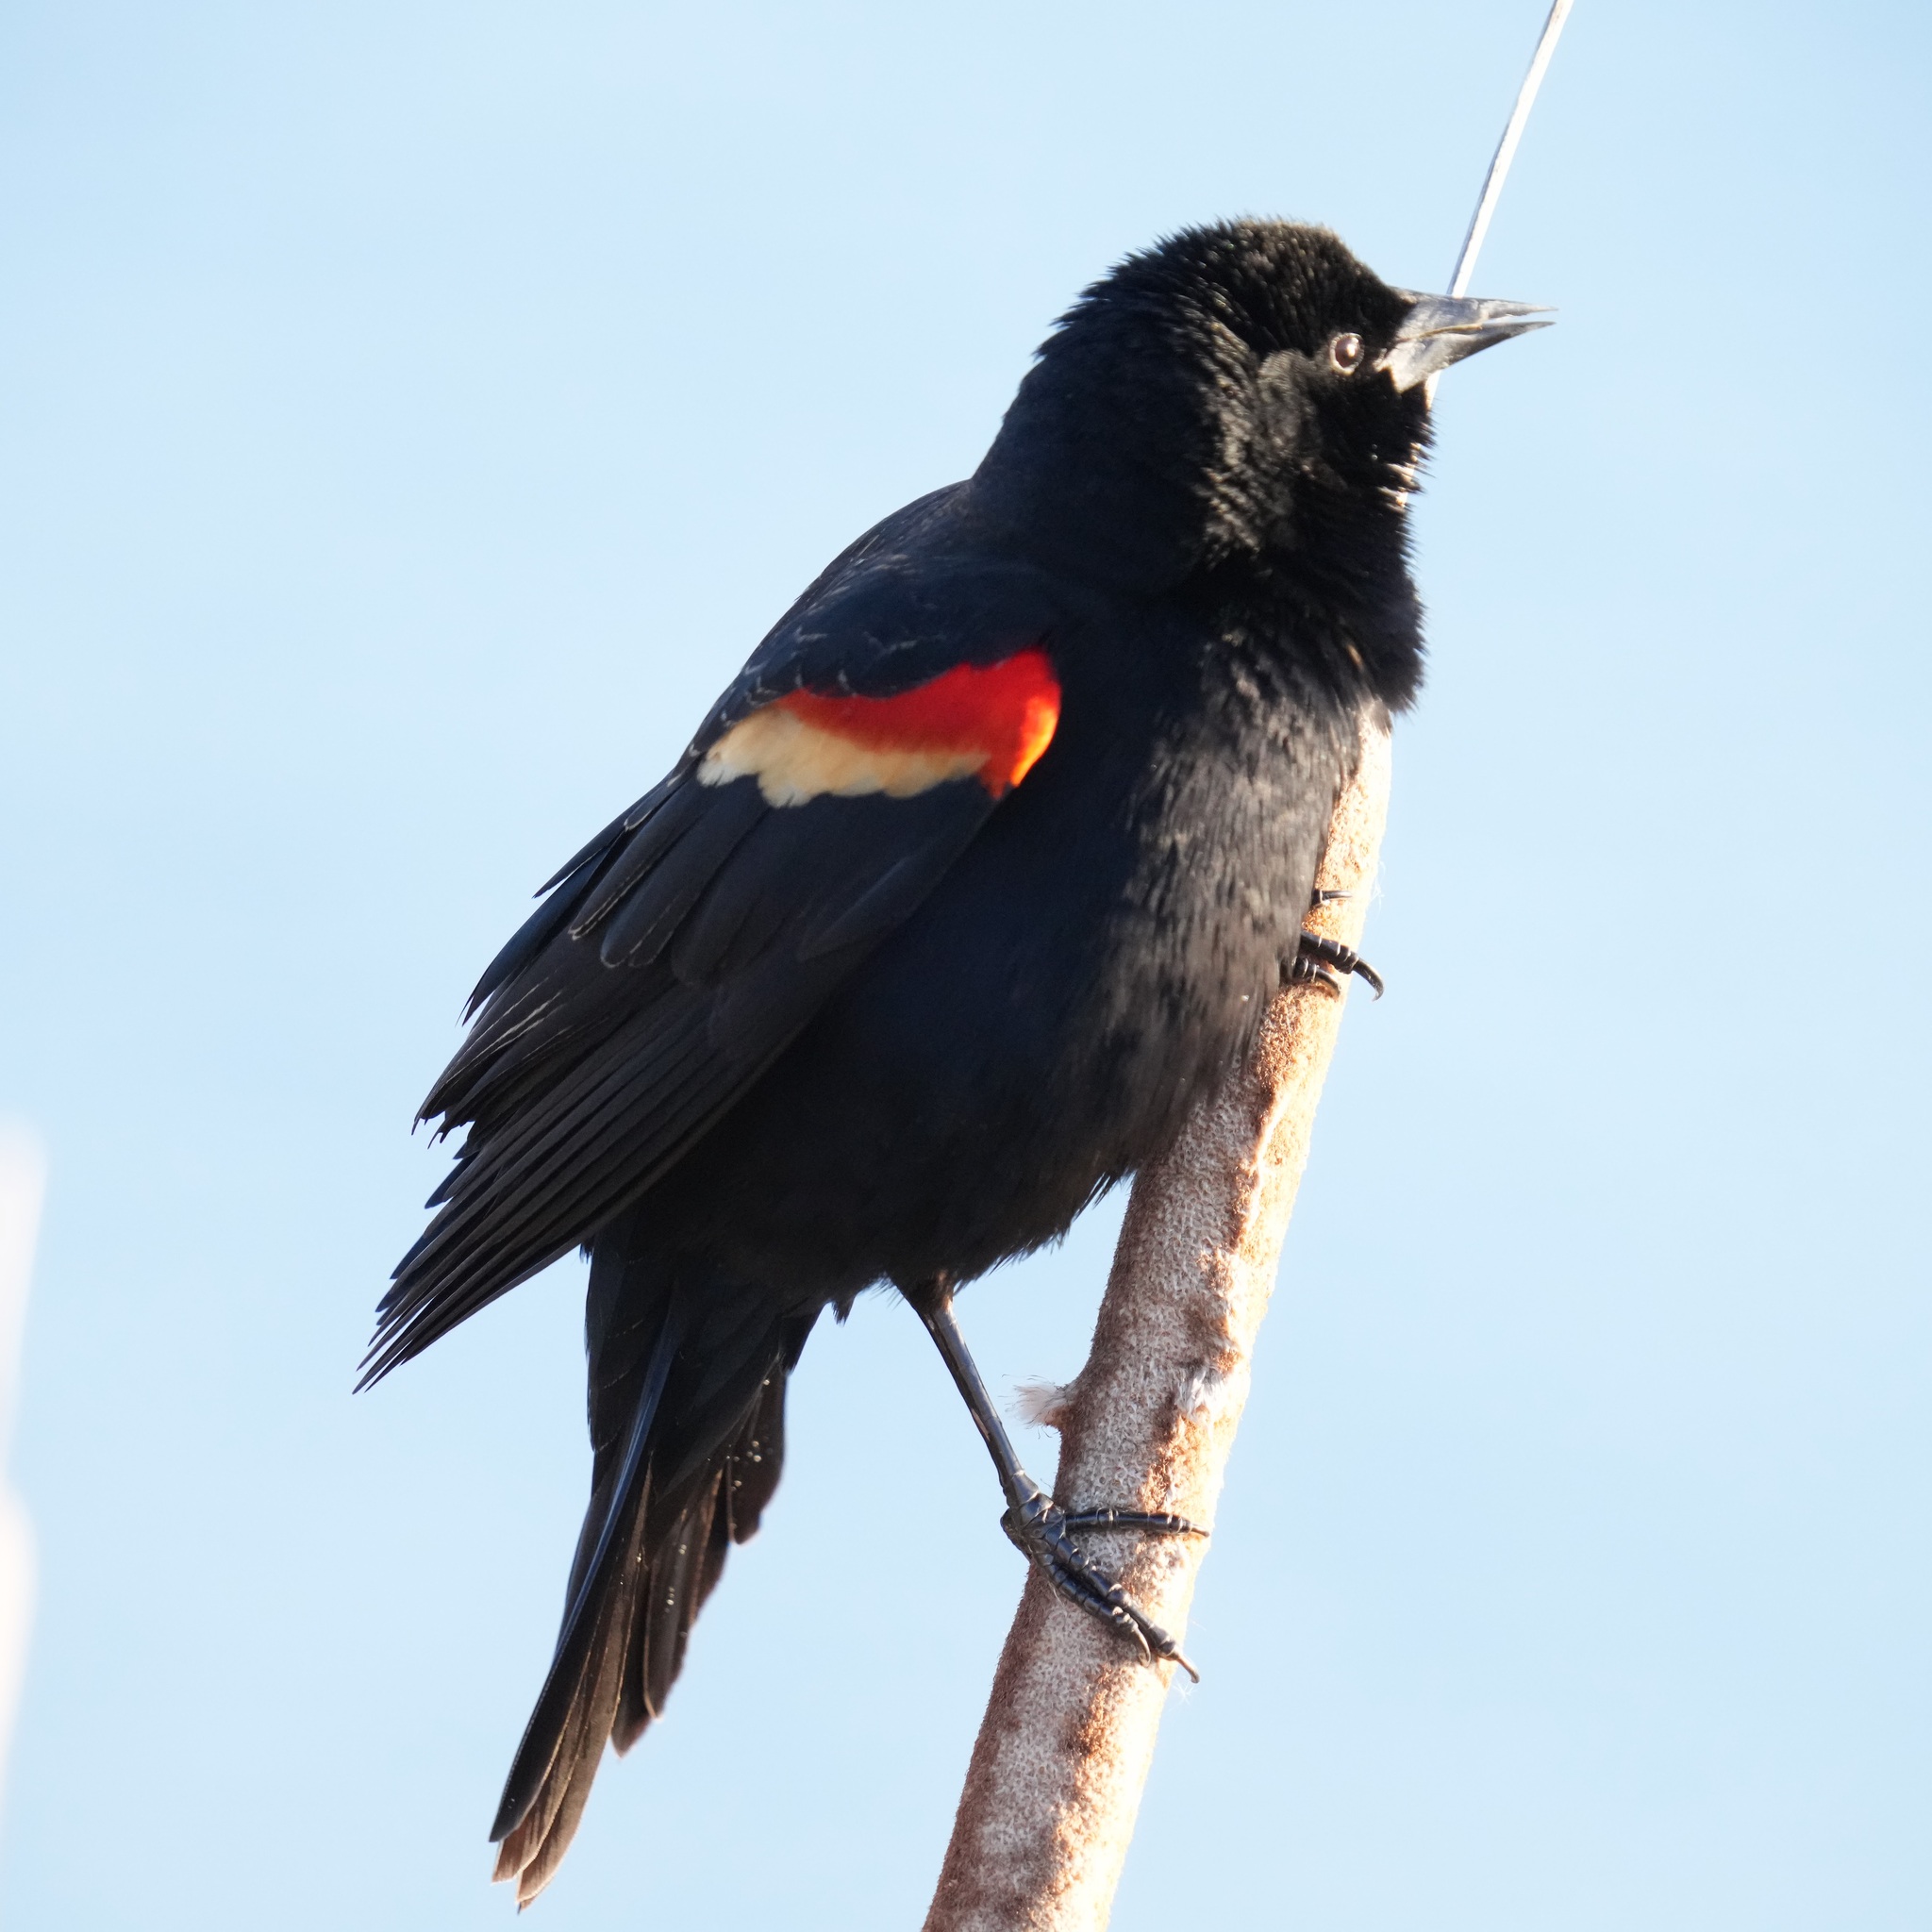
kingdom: Animalia
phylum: Chordata
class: Aves
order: Passeriformes
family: Icteridae
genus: Agelaius
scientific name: Agelaius phoeniceus
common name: Red-winged blackbird
